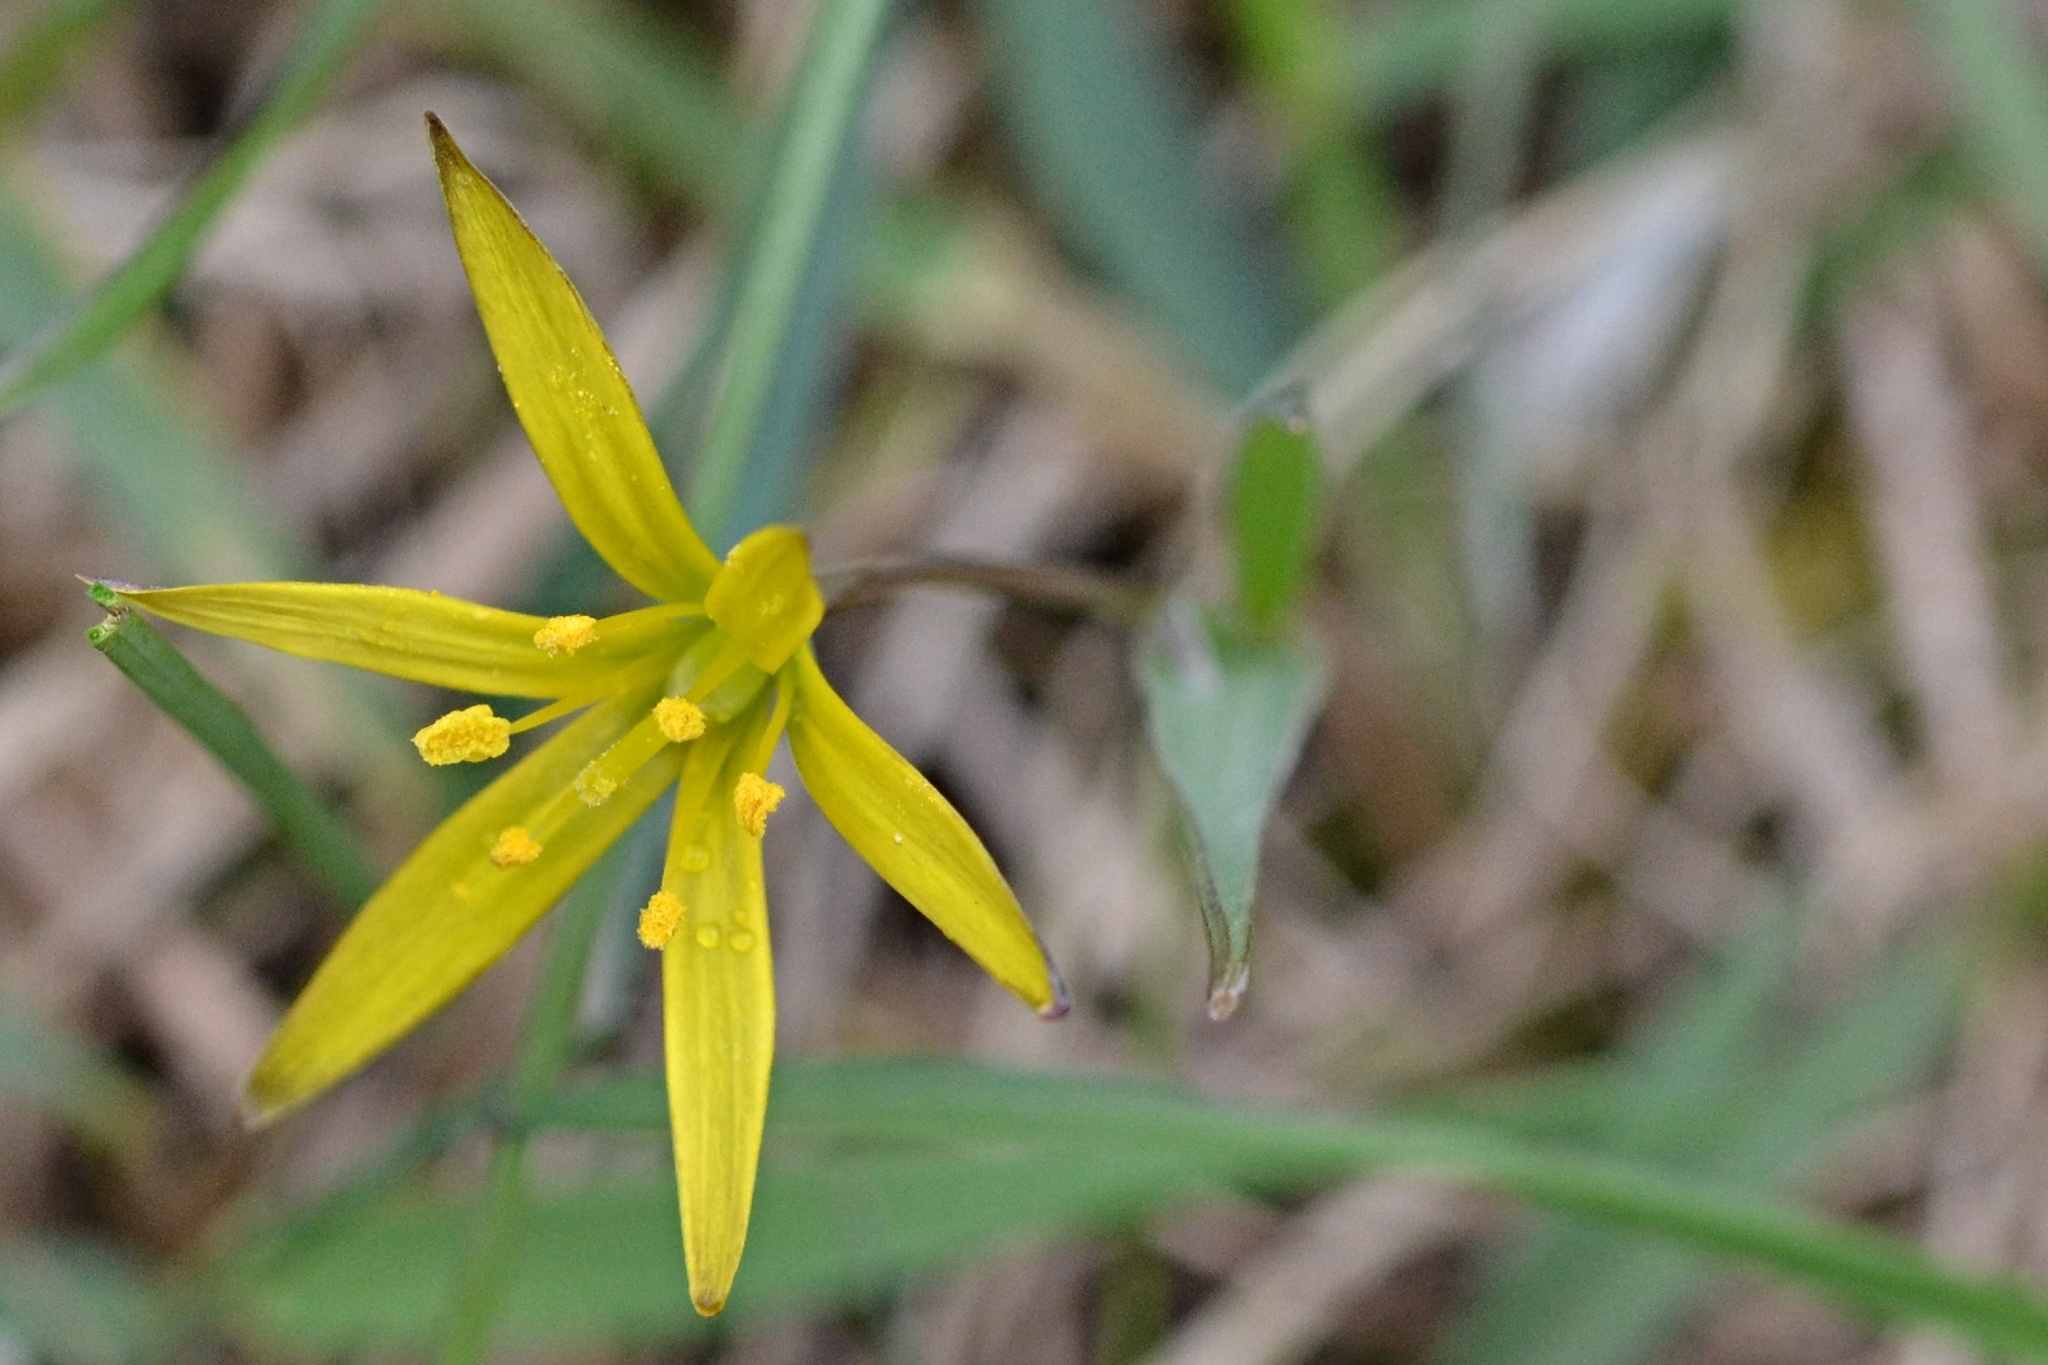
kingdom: Plantae
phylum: Tracheophyta
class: Liliopsida
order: Liliales
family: Liliaceae
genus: Gagea
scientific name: Gagea pratensis
